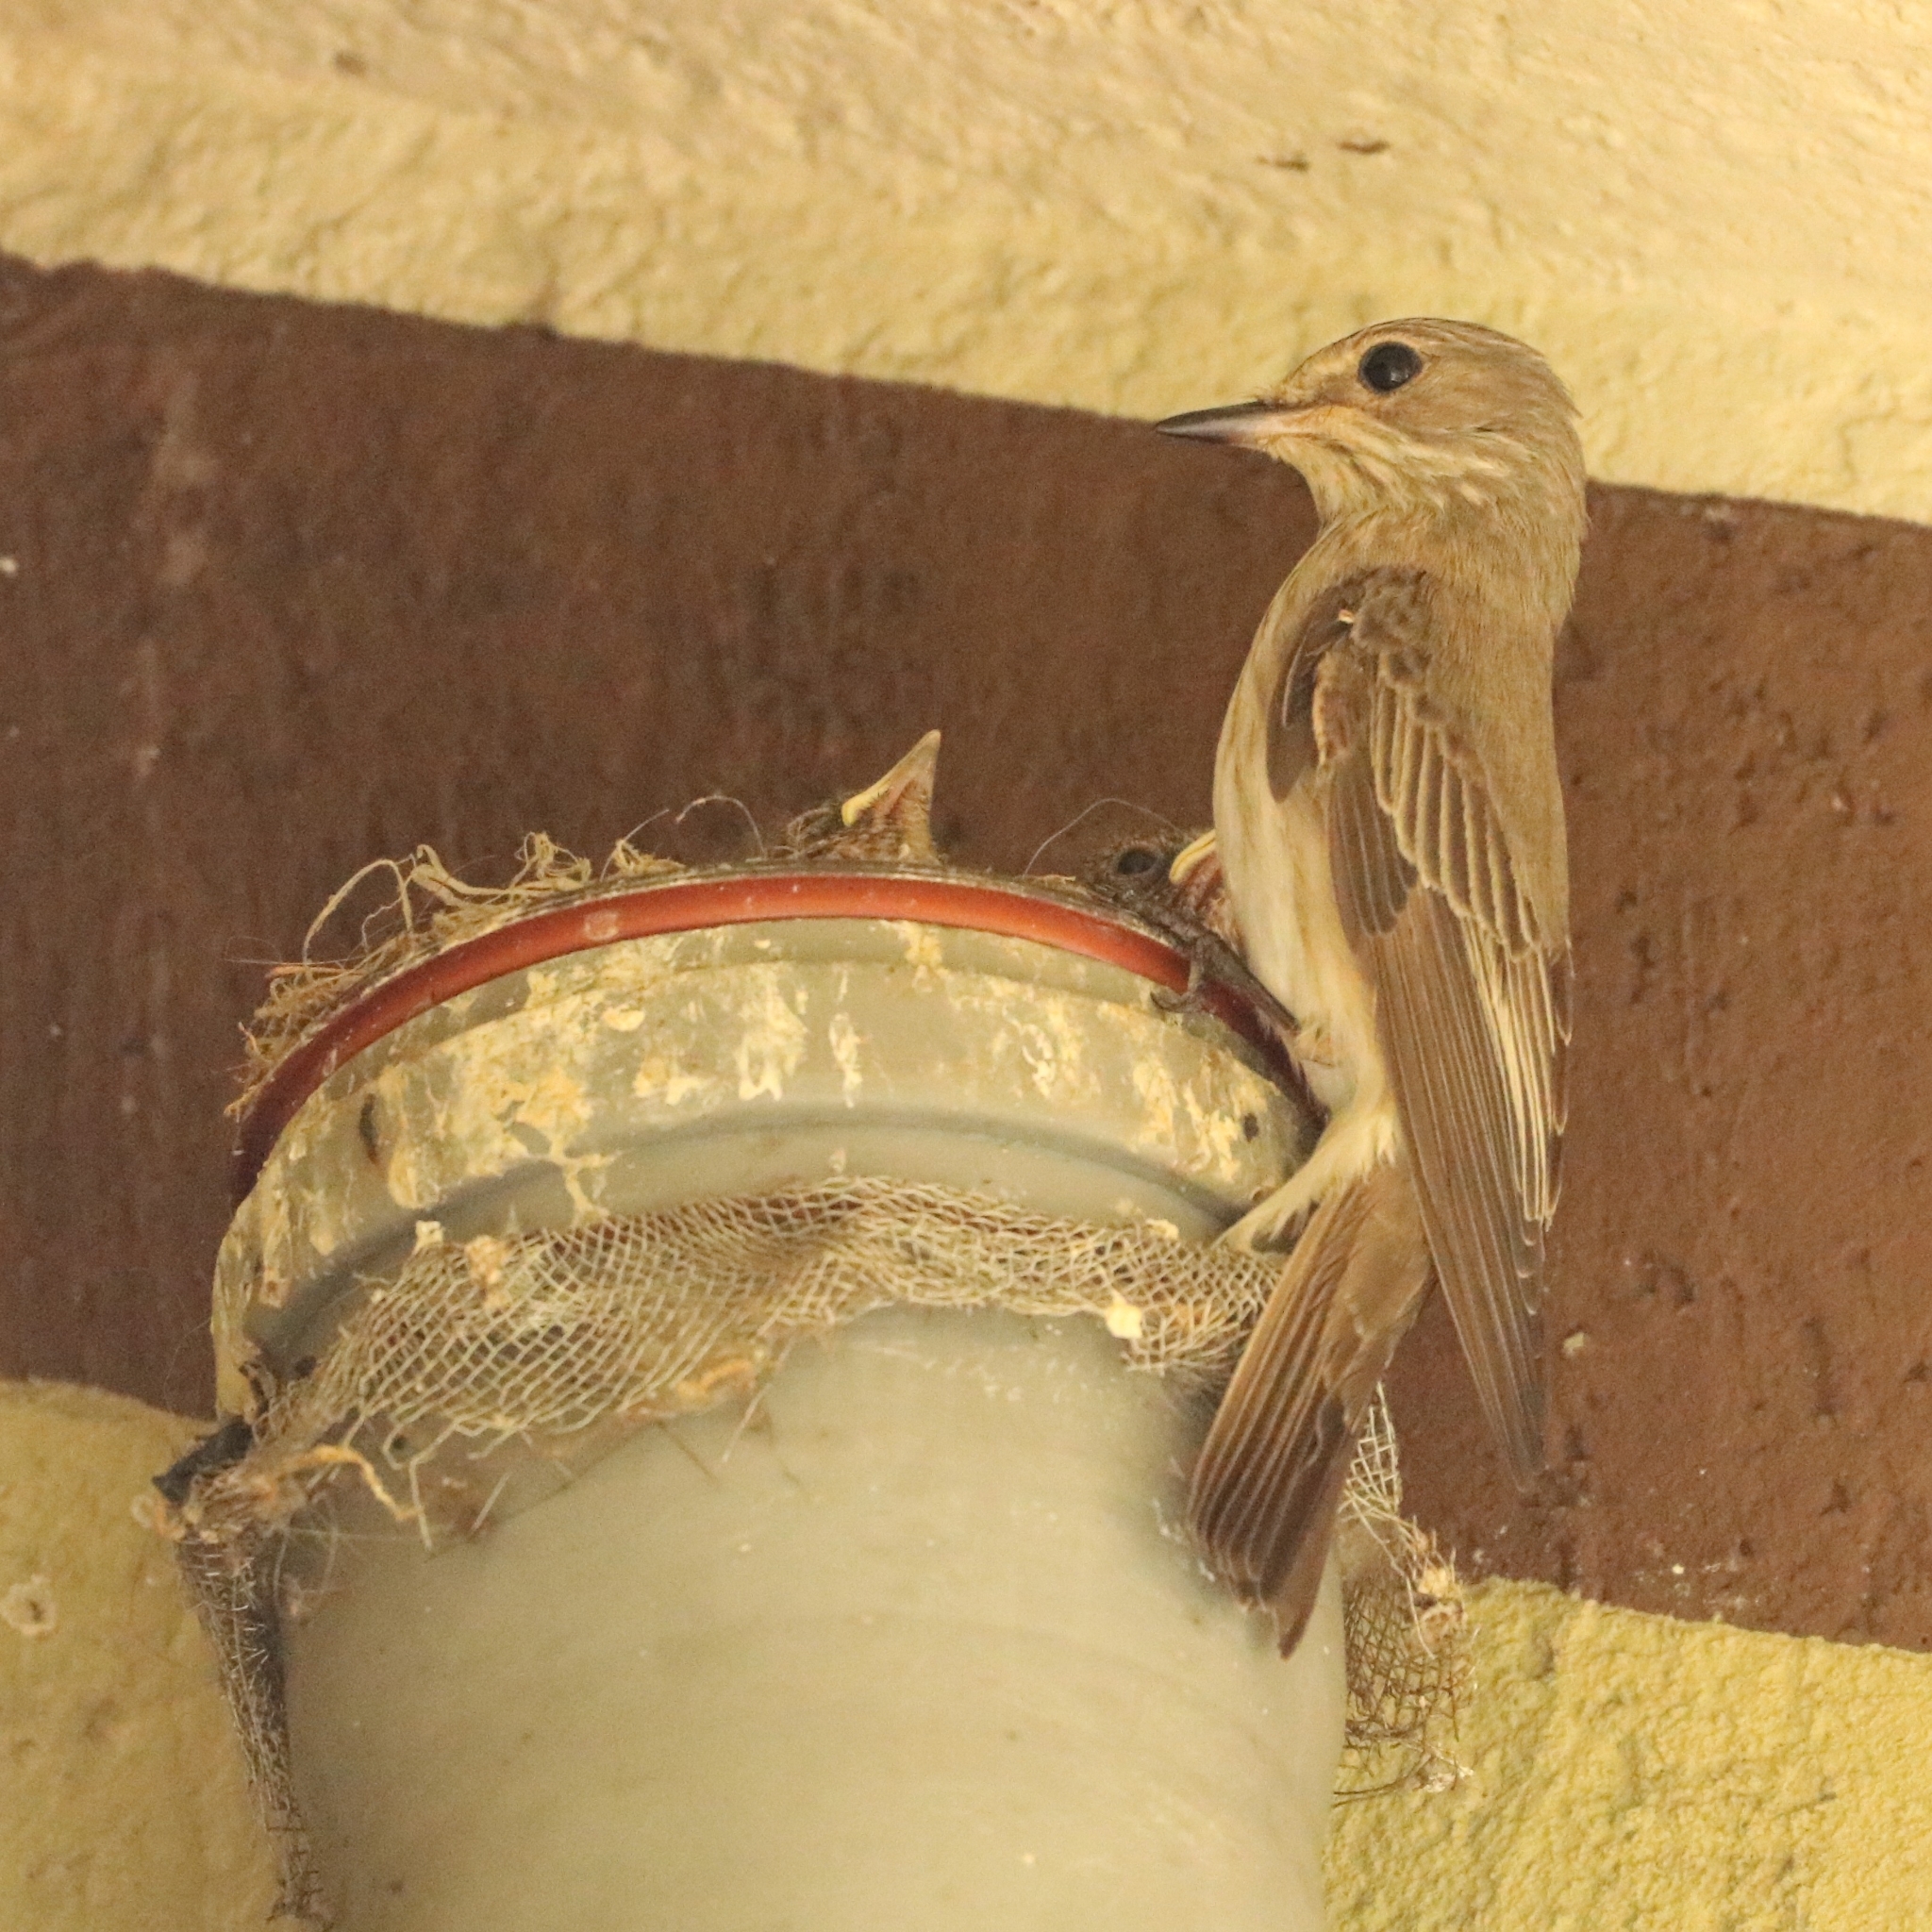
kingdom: Animalia
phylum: Chordata
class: Aves
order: Passeriformes
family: Muscicapidae
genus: Muscicapa
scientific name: Muscicapa striata
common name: Spotted flycatcher
